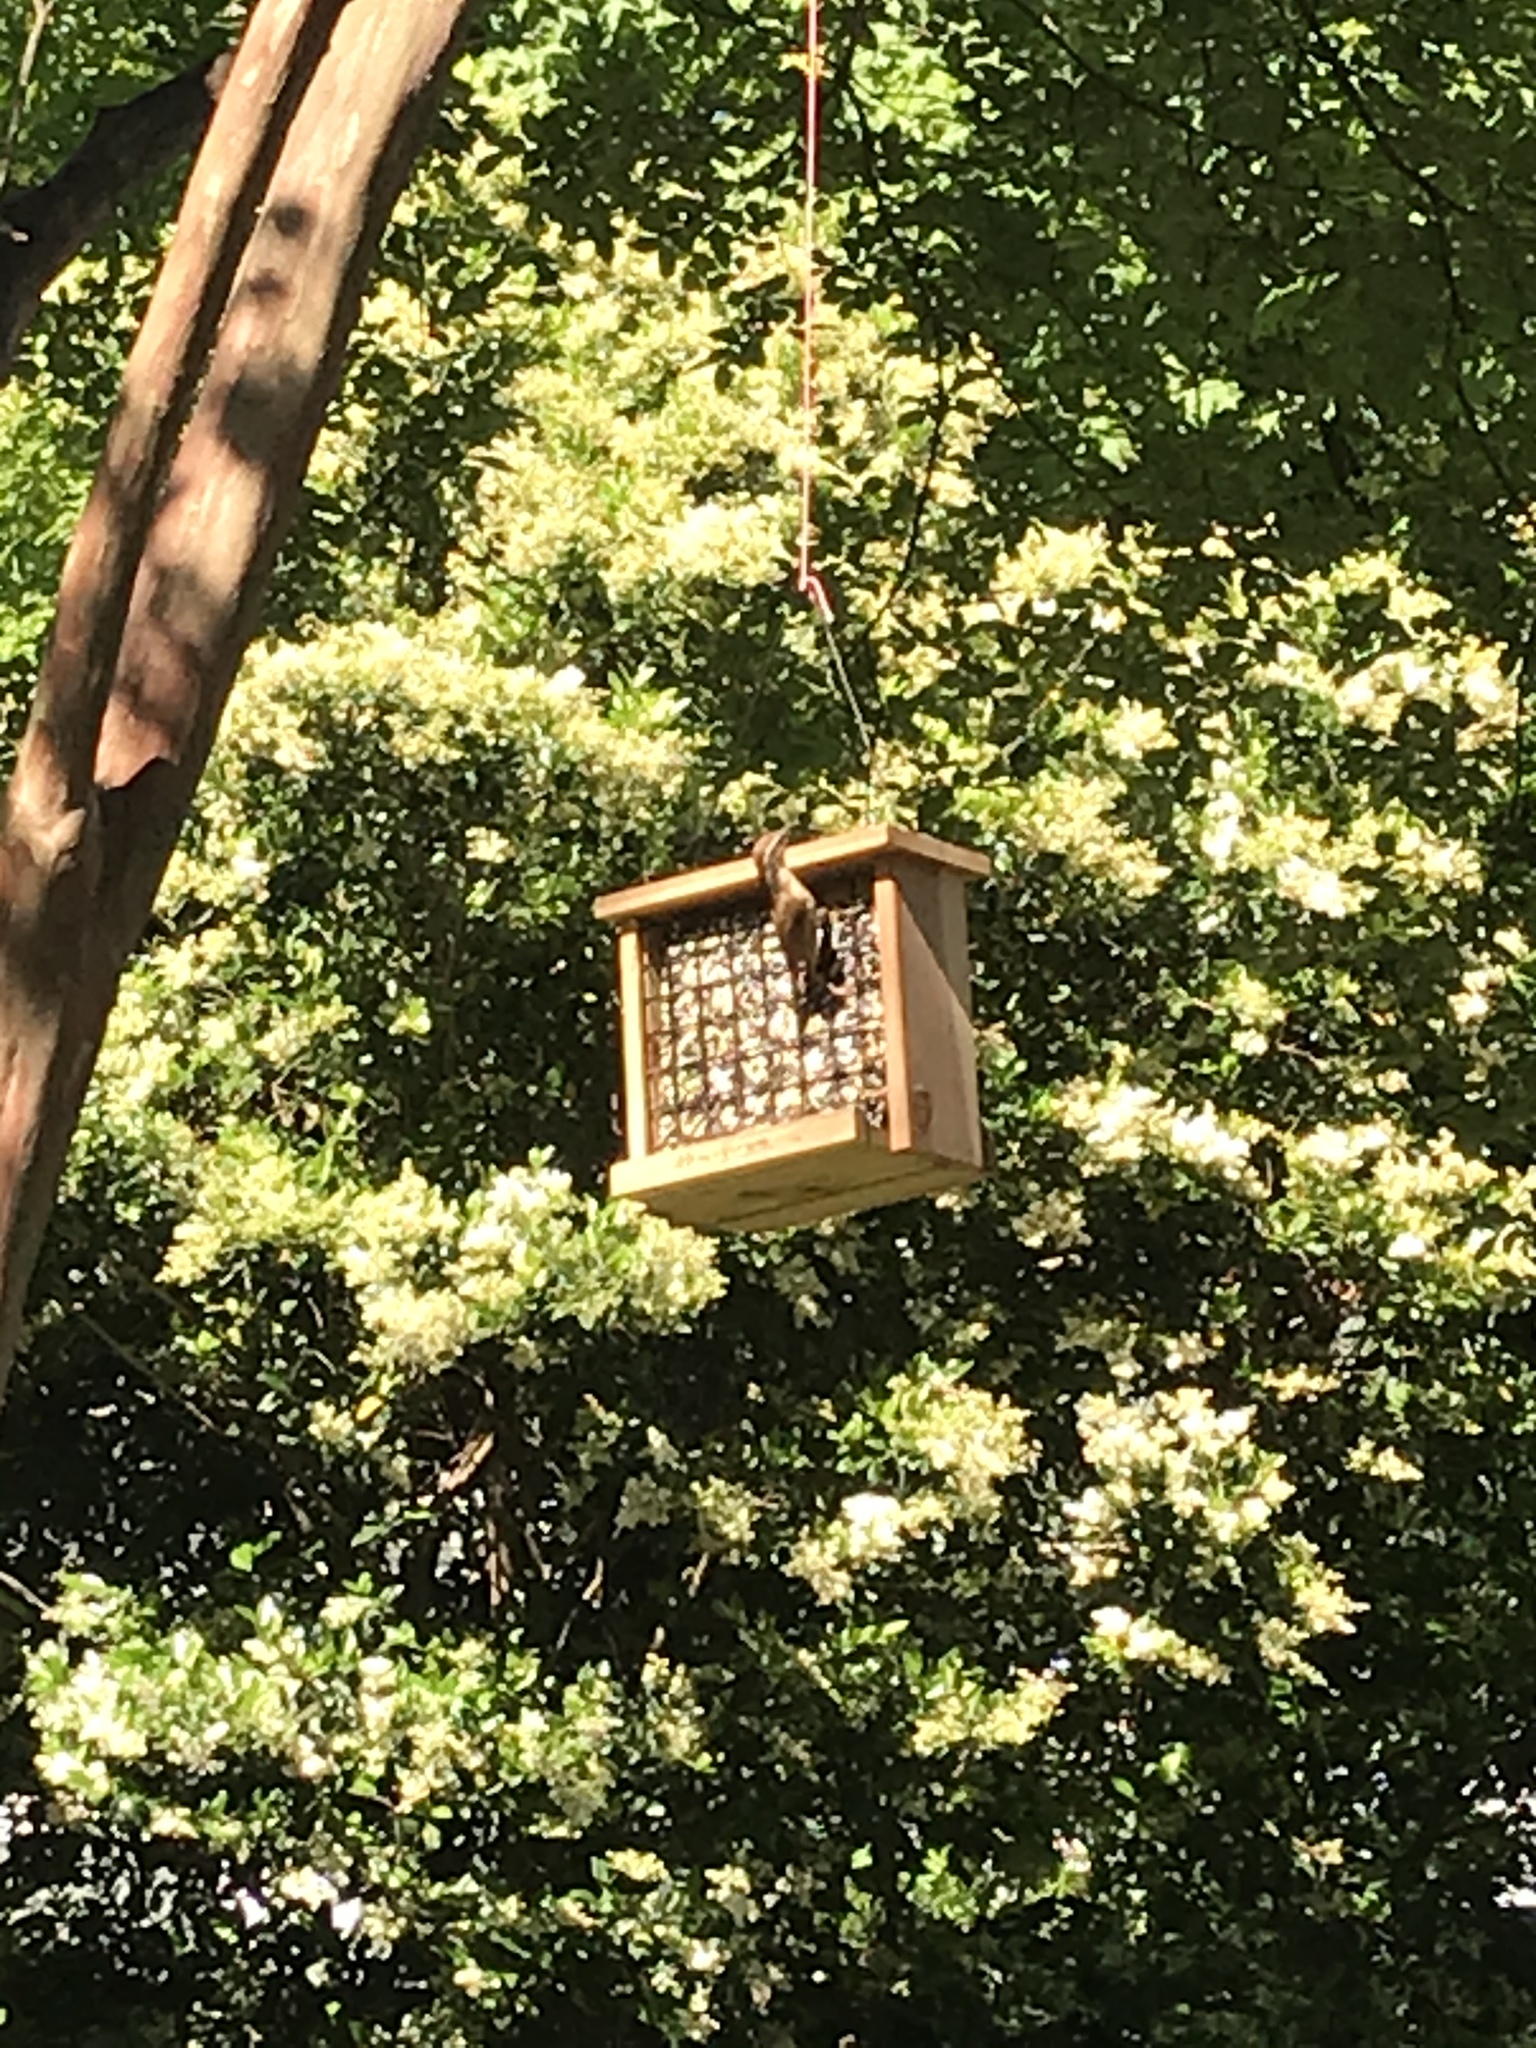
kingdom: Animalia
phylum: Chordata
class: Aves
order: Passeriformes
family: Troglodytidae
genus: Thryothorus
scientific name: Thryothorus ludovicianus
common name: Carolina wren
